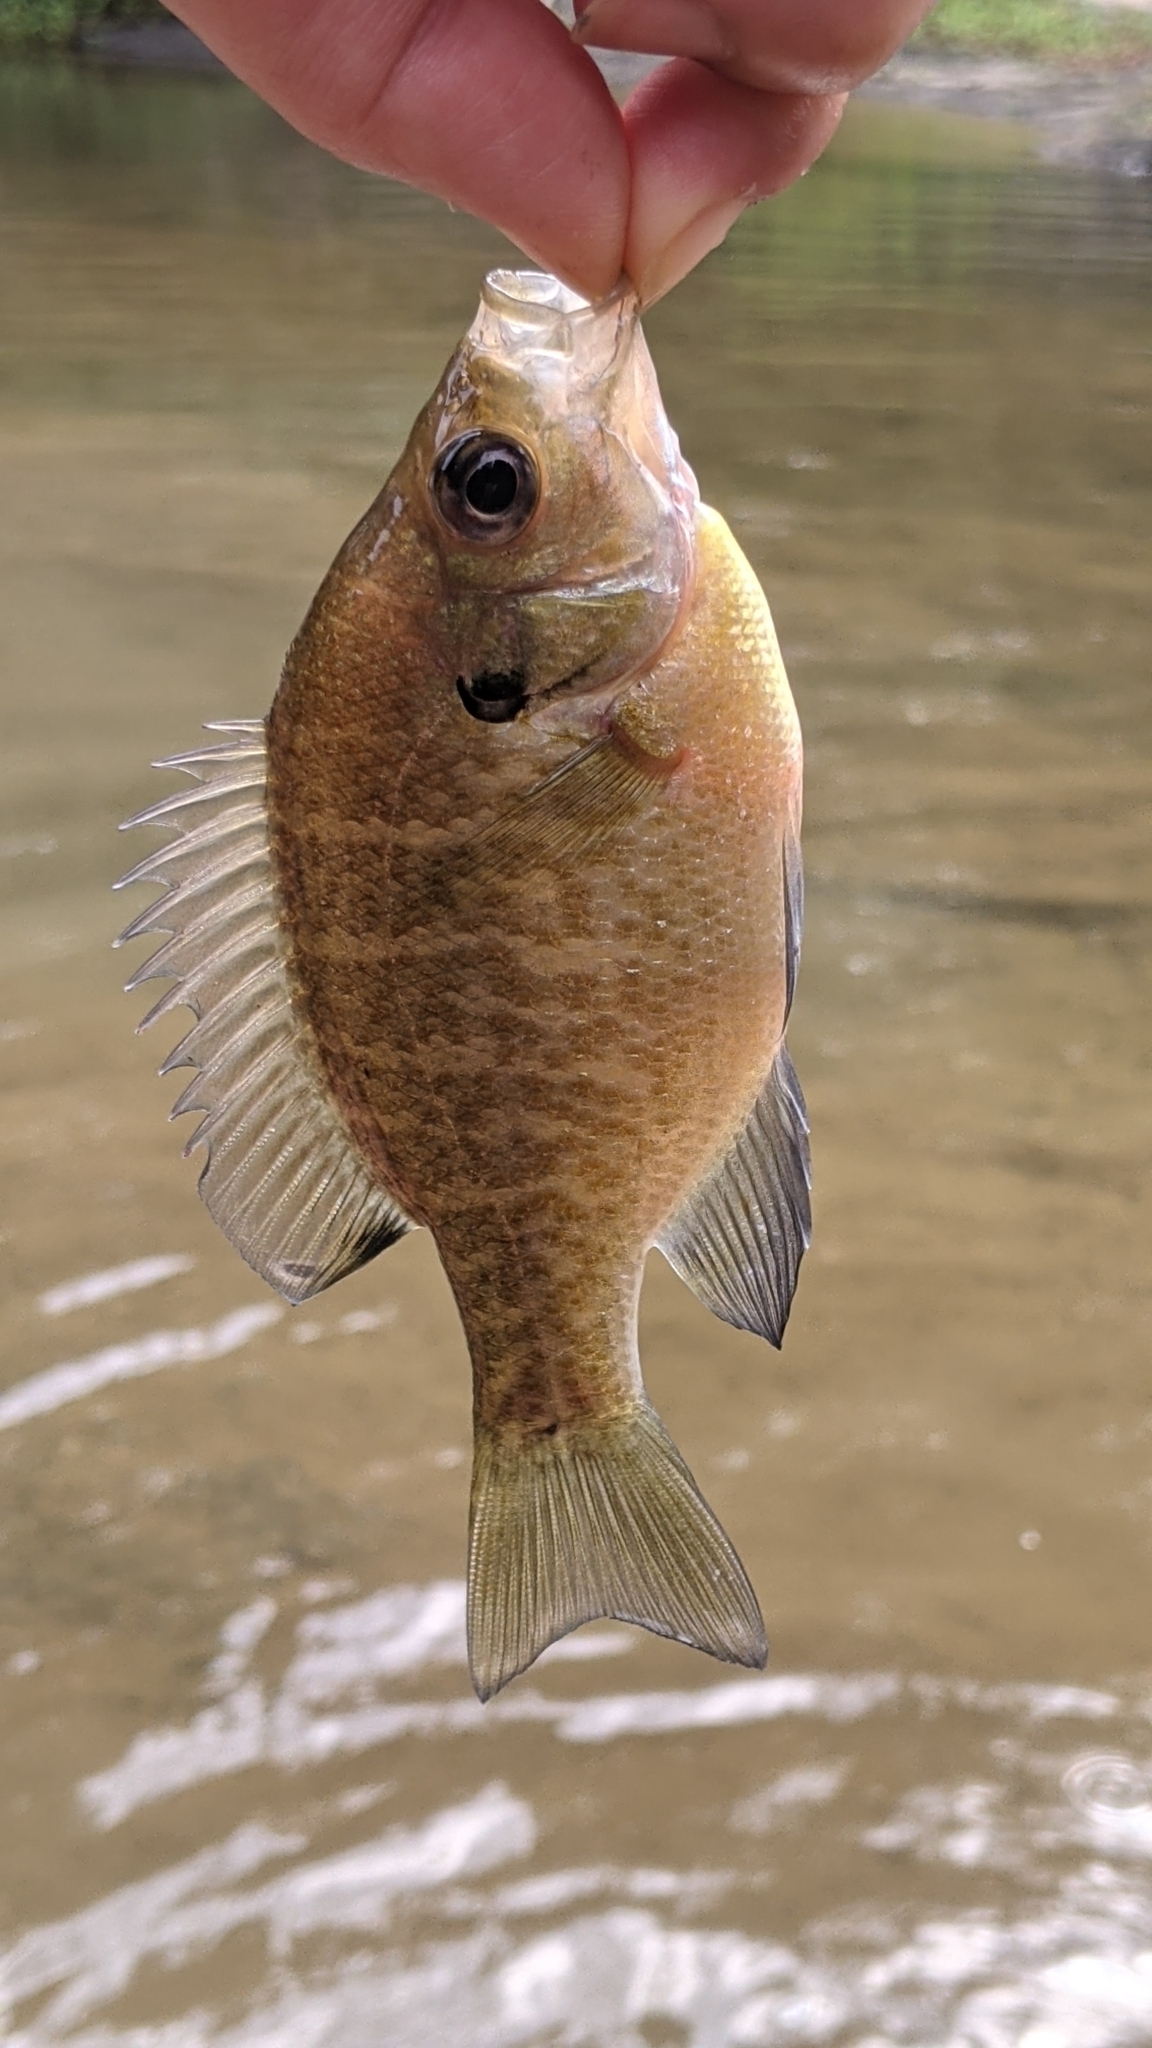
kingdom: Animalia
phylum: Chordata
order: Perciformes
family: Centrarchidae
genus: Lepomis
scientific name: Lepomis macrochirus
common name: Bluegill
